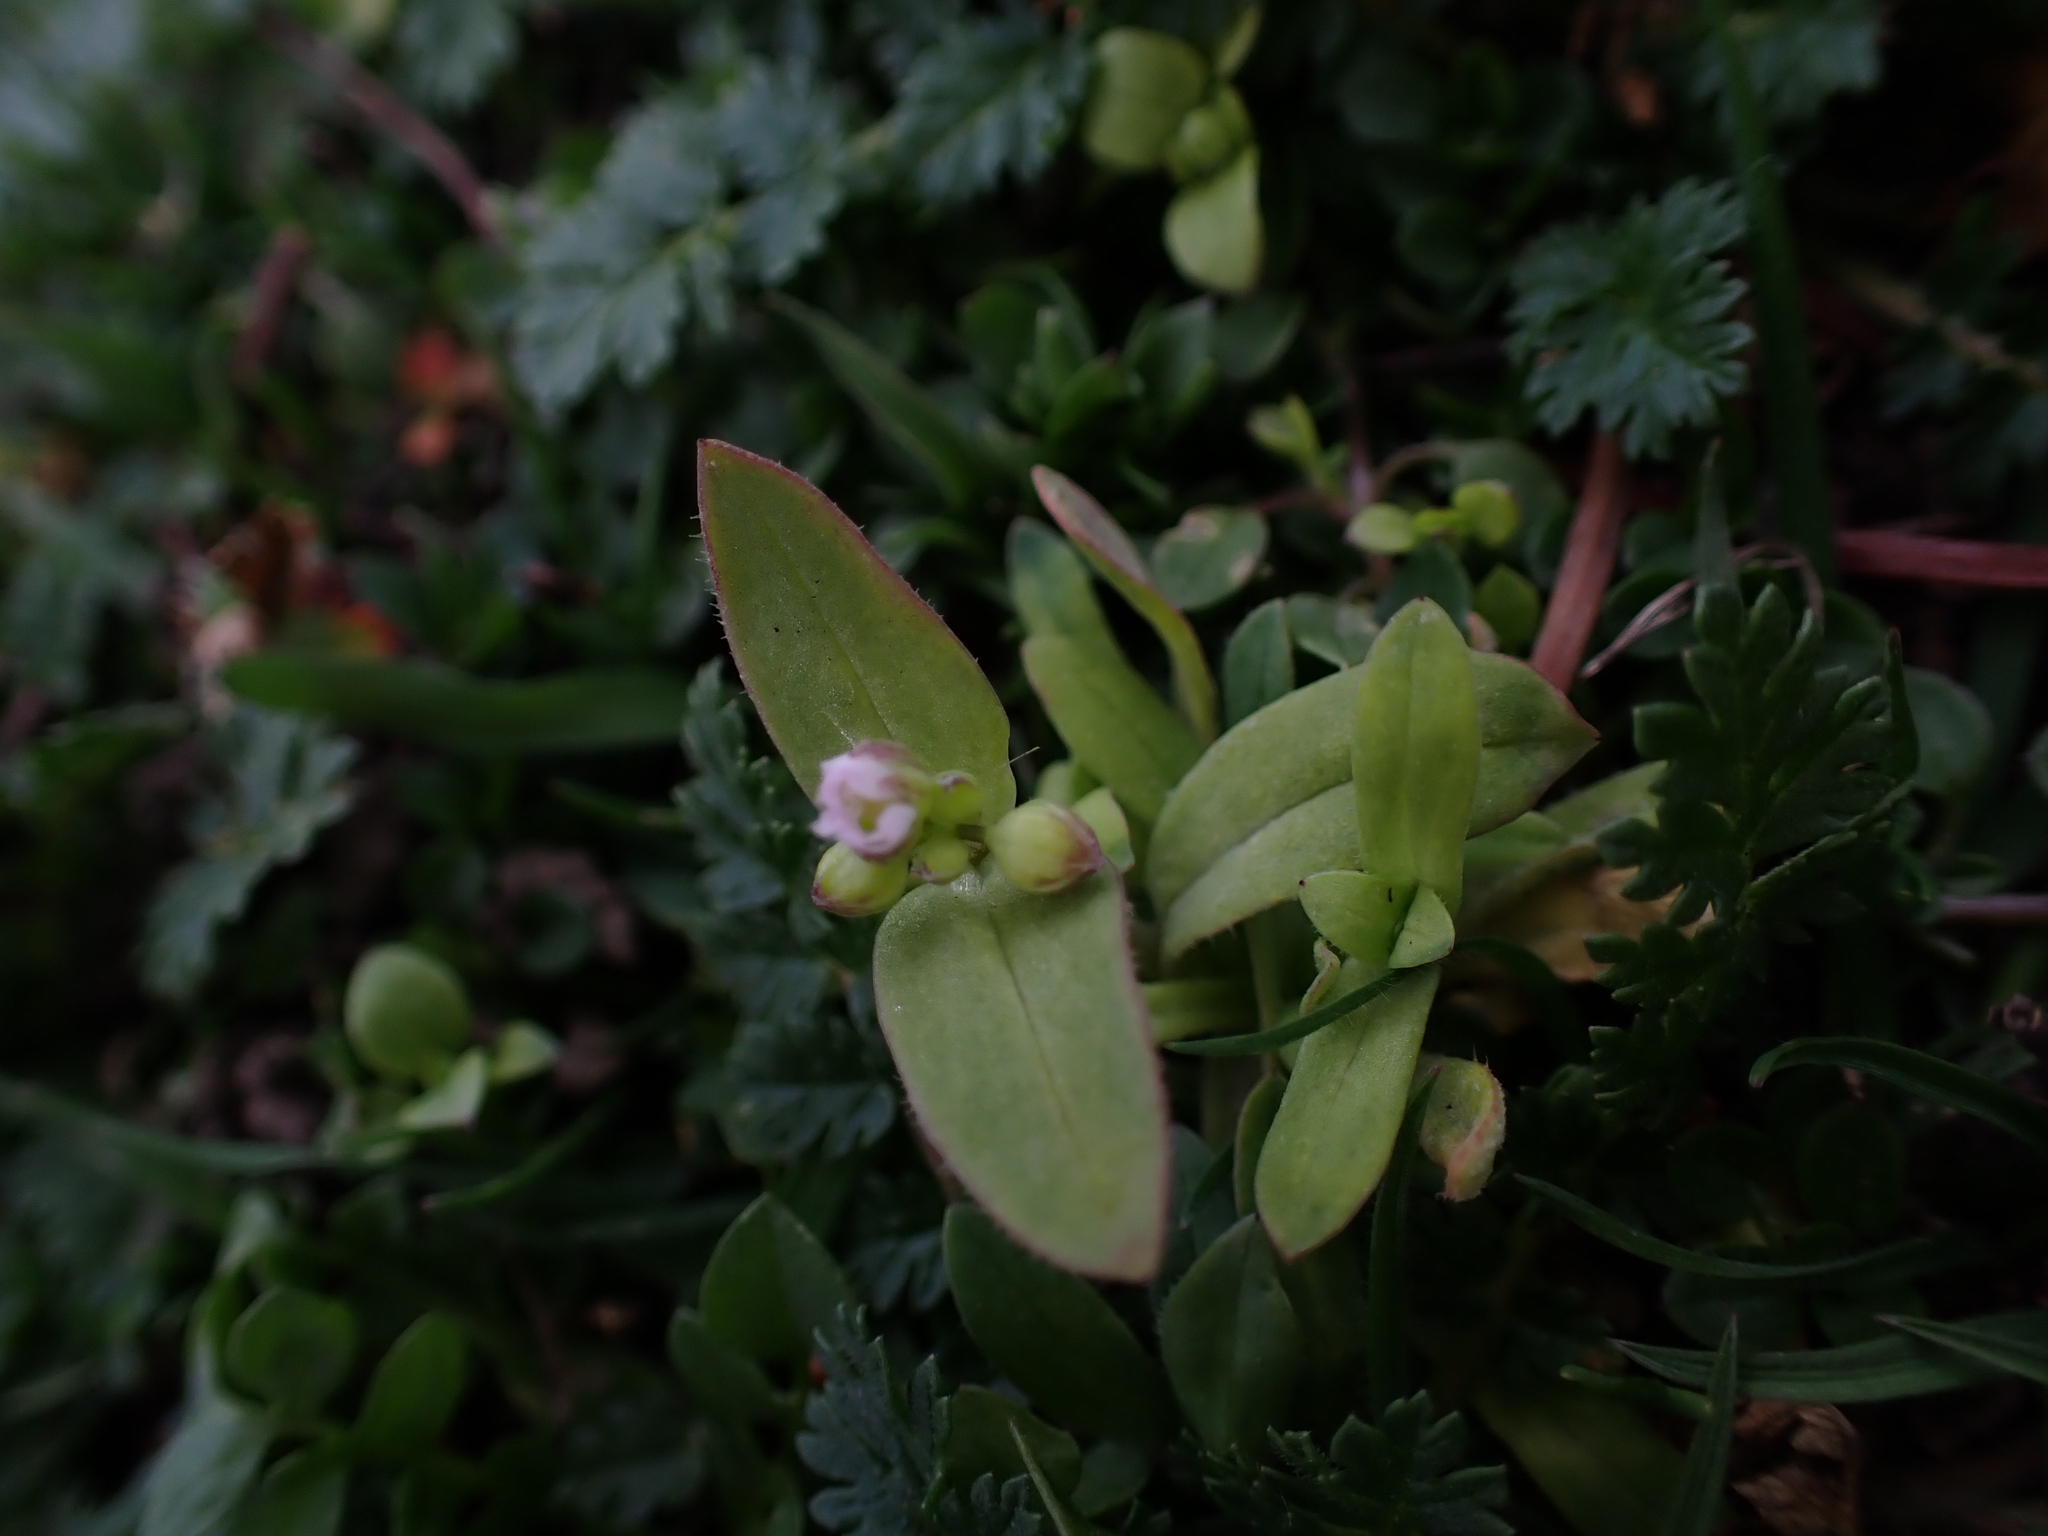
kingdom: Plantae
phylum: Tracheophyta
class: Magnoliopsida
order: Caryophyllales
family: Caryophyllaceae
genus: Holosteum
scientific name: Holosteum umbellatum
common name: Jagged chickweed
